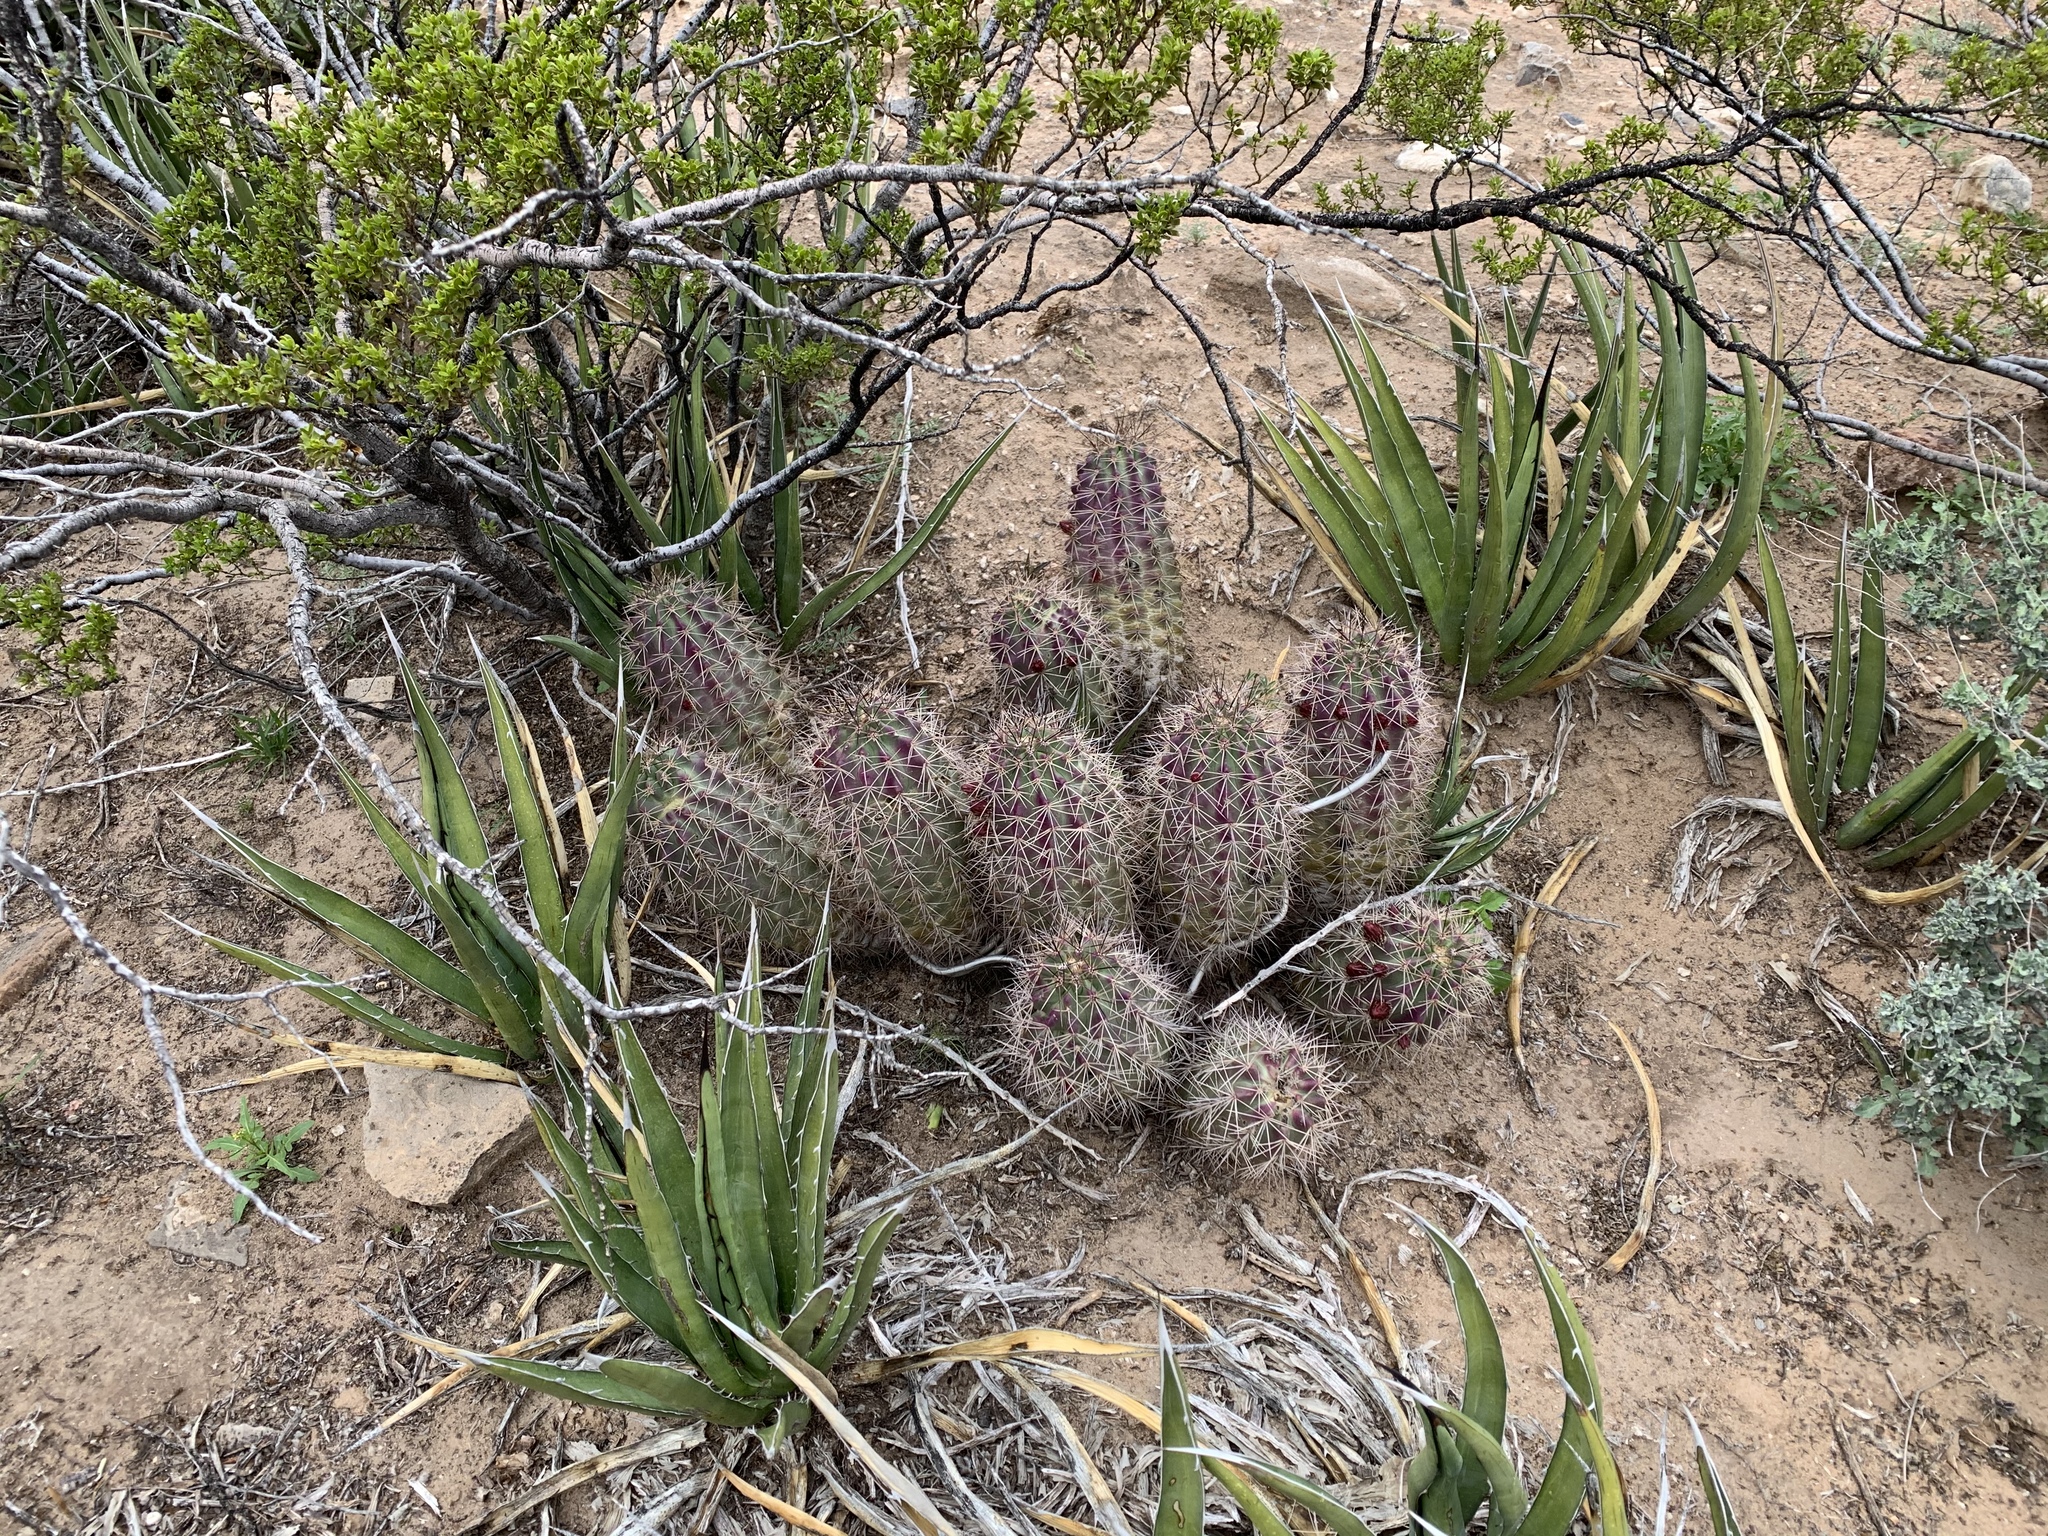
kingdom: Plantae
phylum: Tracheophyta
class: Magnoliopsida
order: Caryophyllales
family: Cactaceae
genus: Echinocereus
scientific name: Echinocereus coccineus
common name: Scarlet hedgehog cactus
